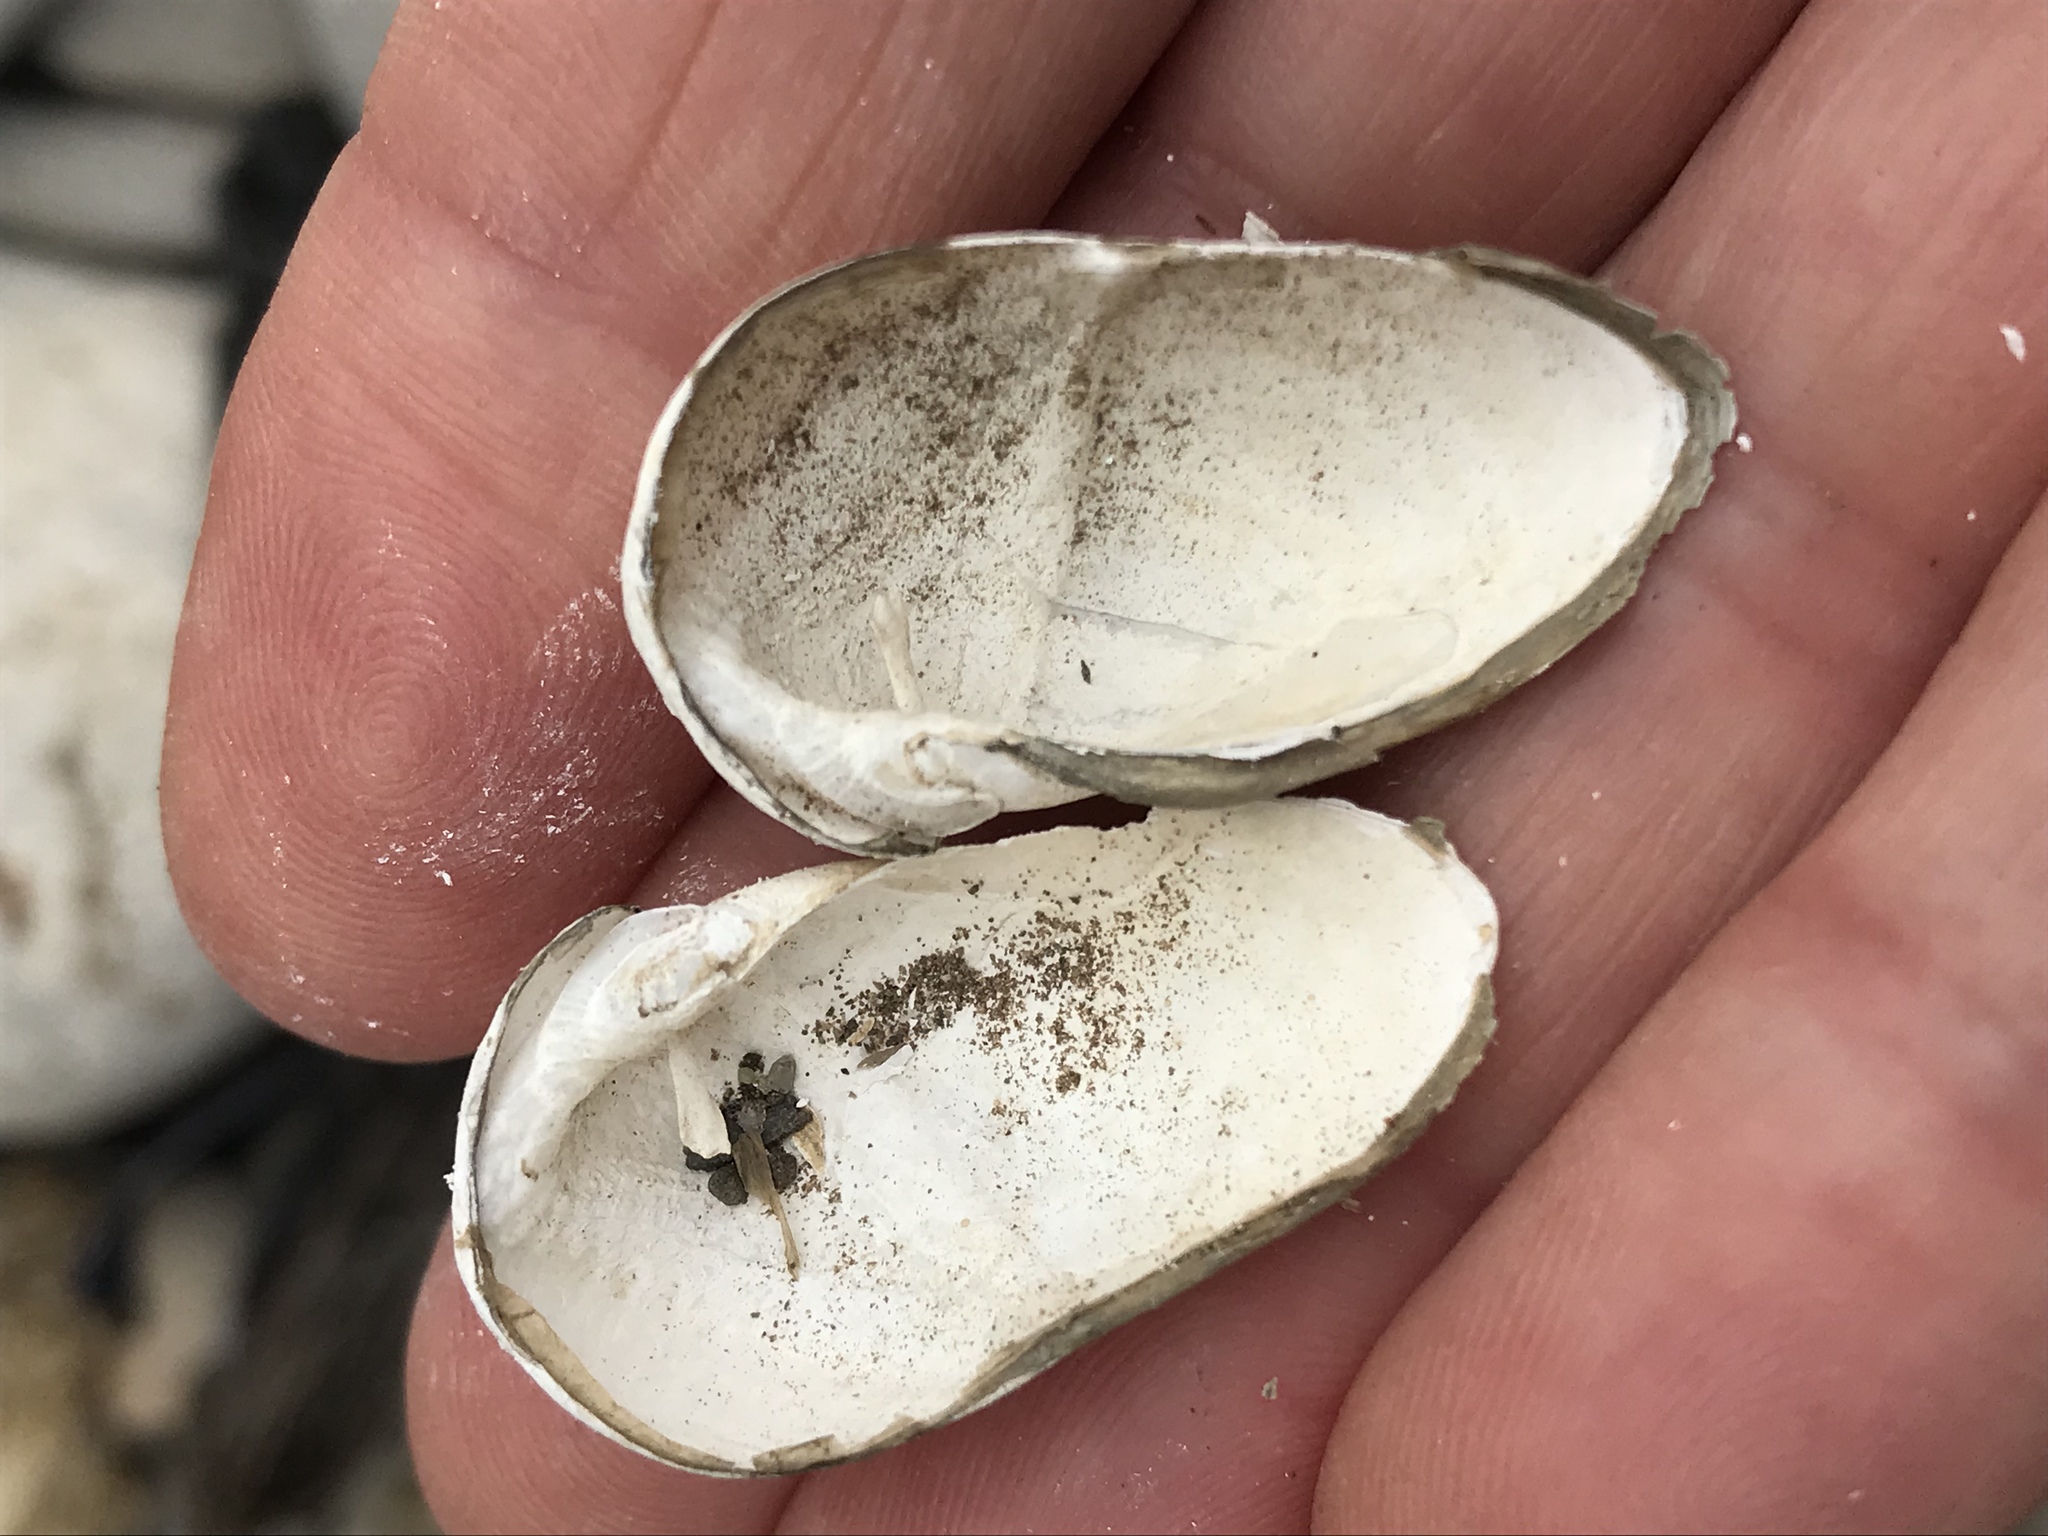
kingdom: Animalia
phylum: Mollusca
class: Bivalvia
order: Myida
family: Pholadidae
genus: Penitella
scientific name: Penitella richardsoni
